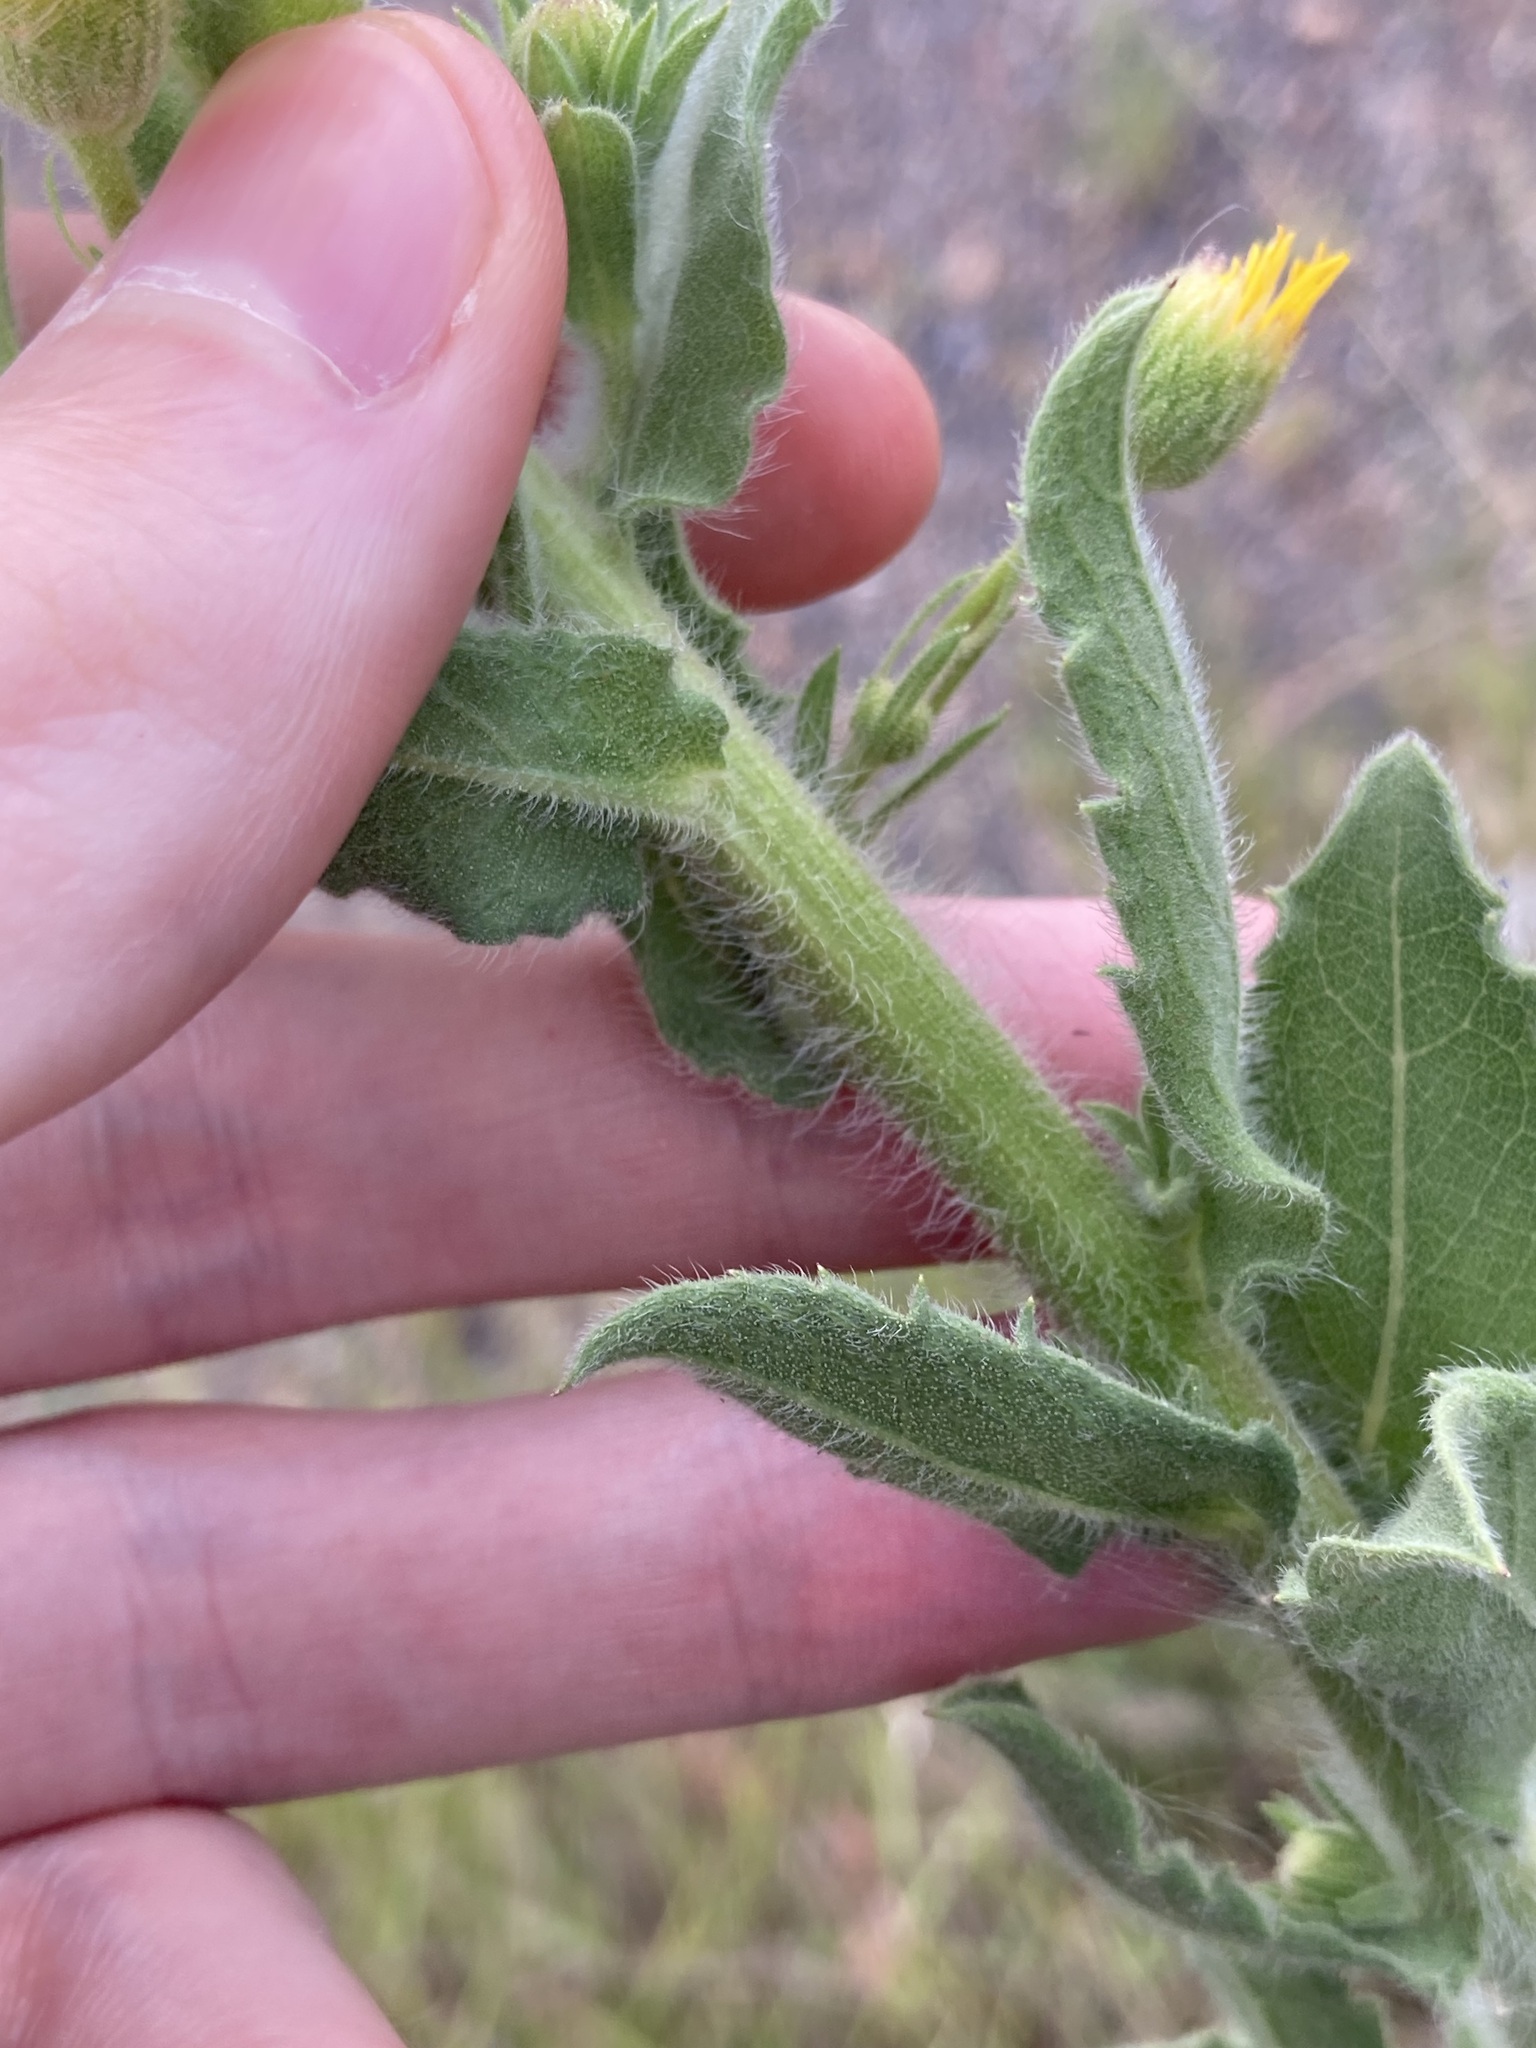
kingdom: Plantae
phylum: Tracheophyta
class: Magnoliopsida
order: Asterales
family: Asteraceae
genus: Heterotheca
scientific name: Heterotheca grandiflora
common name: Telegraphweed
